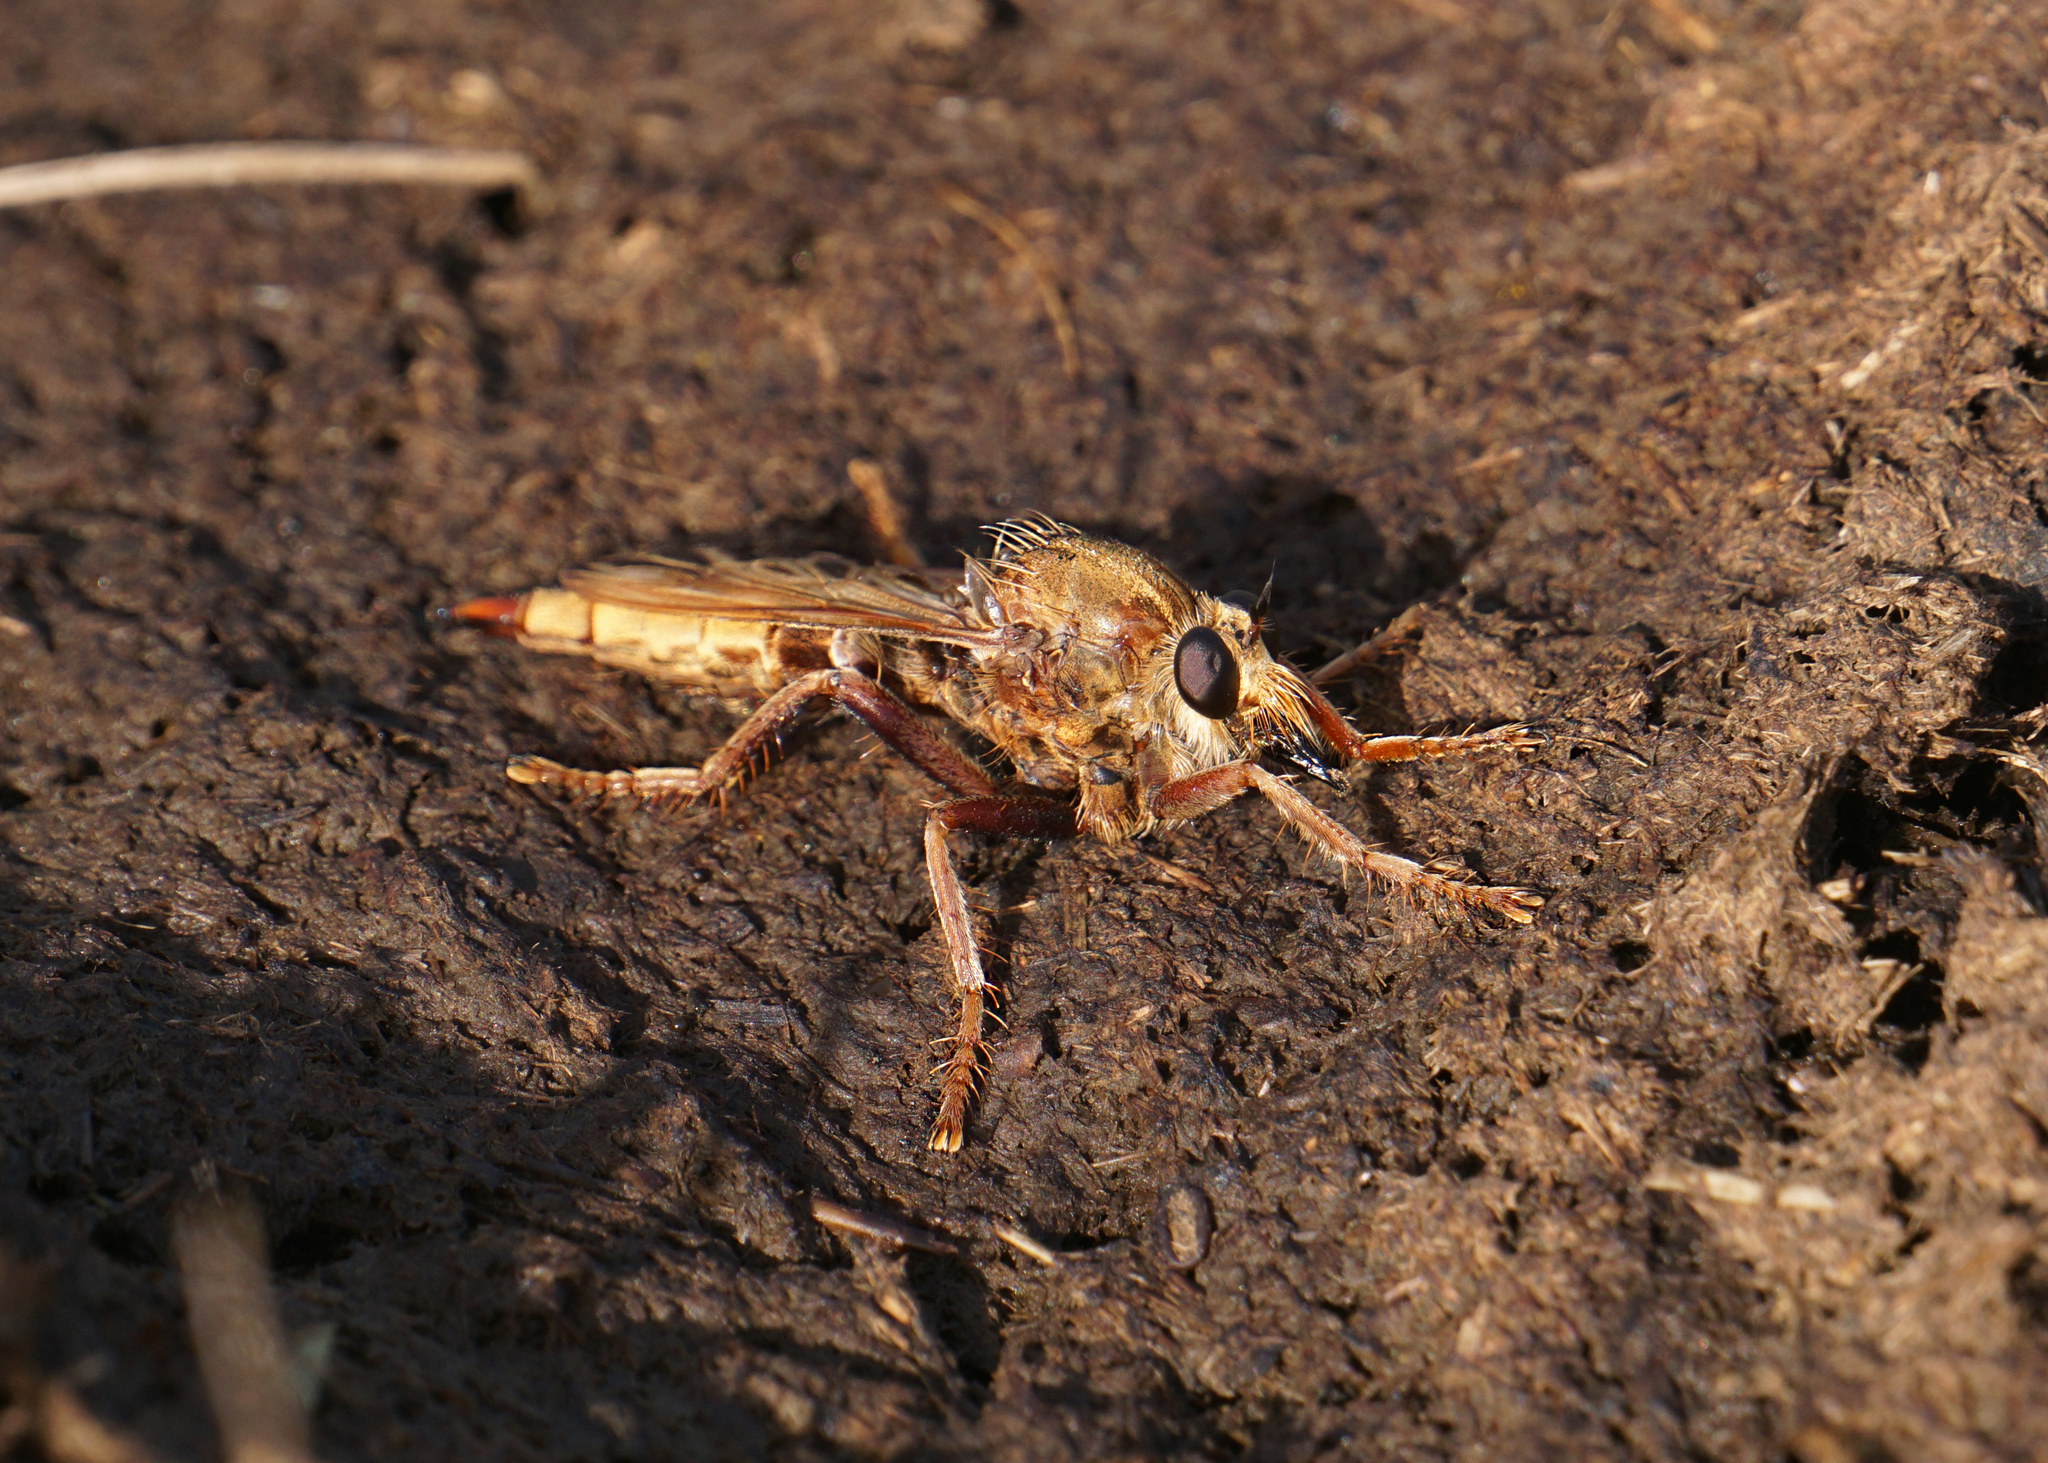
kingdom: Animalia
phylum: Arthropoda
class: Insecta
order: Diptera
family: Asilidae
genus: Asilus
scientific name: Asilus crabroniformis
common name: Hornet robberfly
